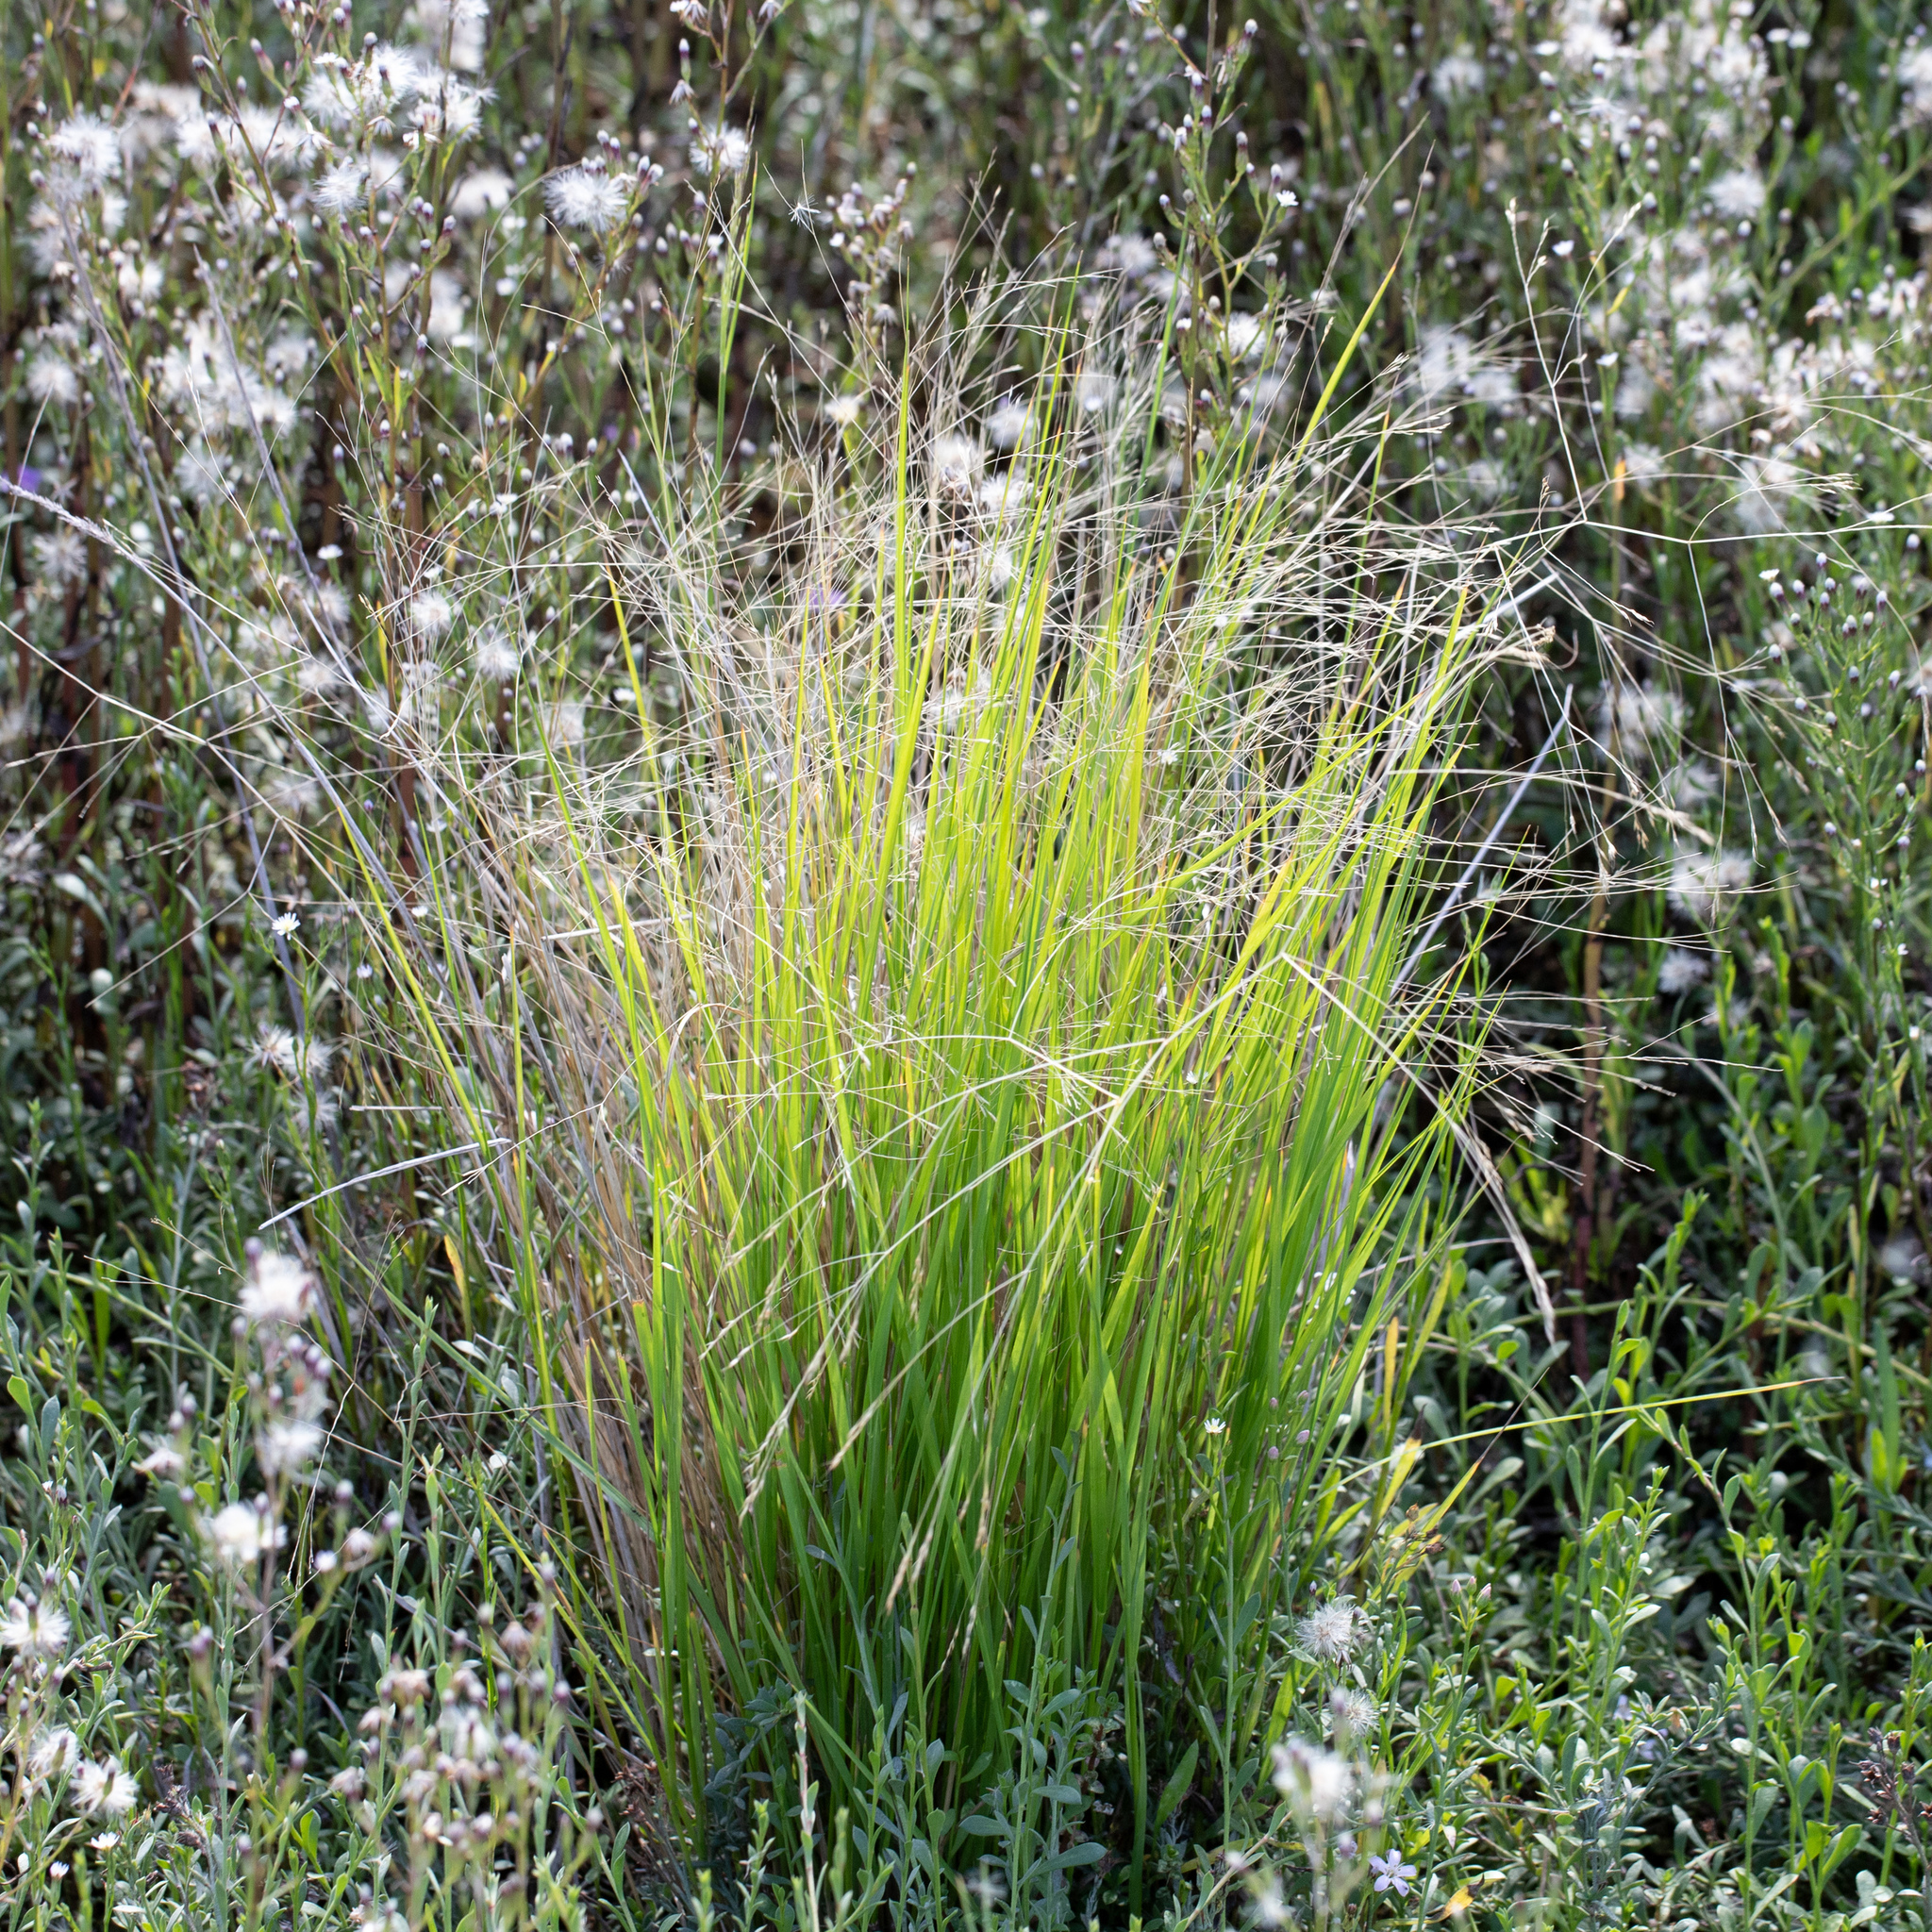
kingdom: Plantae
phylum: Tracheophyta
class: Liliopsida
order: Poales
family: Poaceae
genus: Lachnagrostis
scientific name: Lachnagrostis filiformis
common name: Bentgrass
